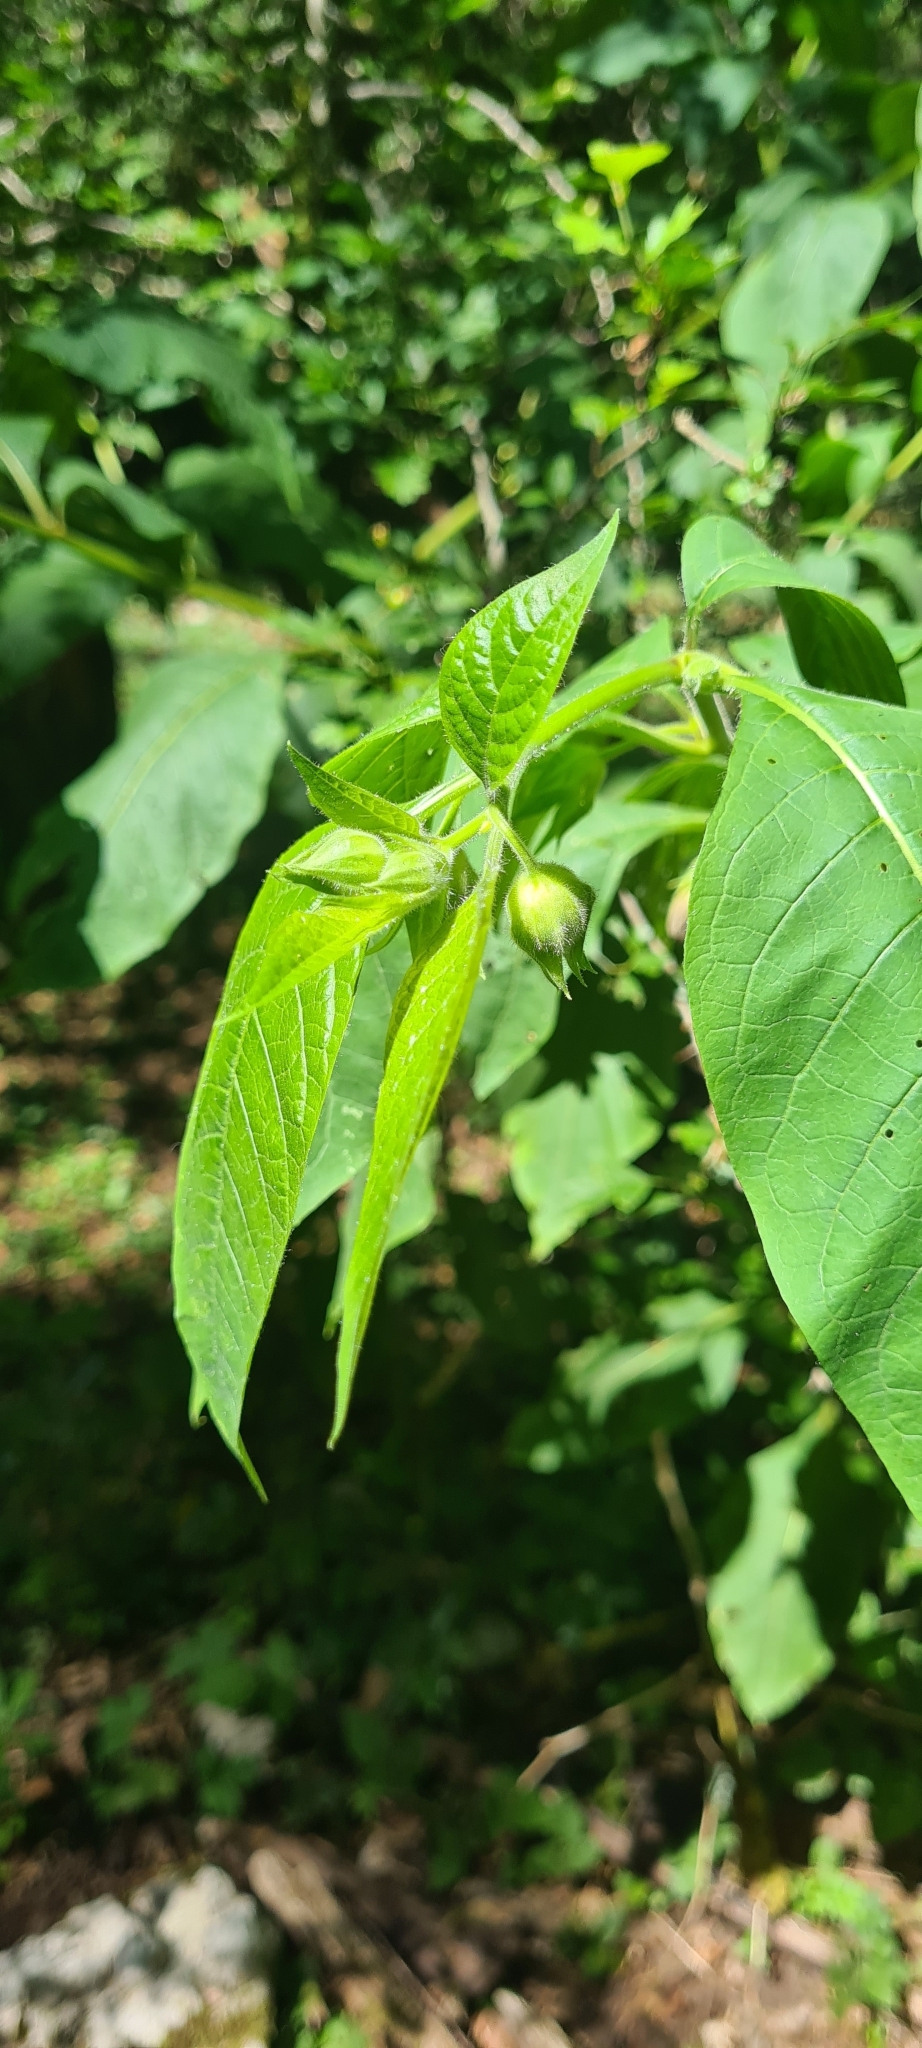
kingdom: Plantae
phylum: Tracheophyta
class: Magnoliopsida
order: Solanales
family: Solanaceae
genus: Atropa
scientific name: Atropa belladonna
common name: Deadly nightshade
